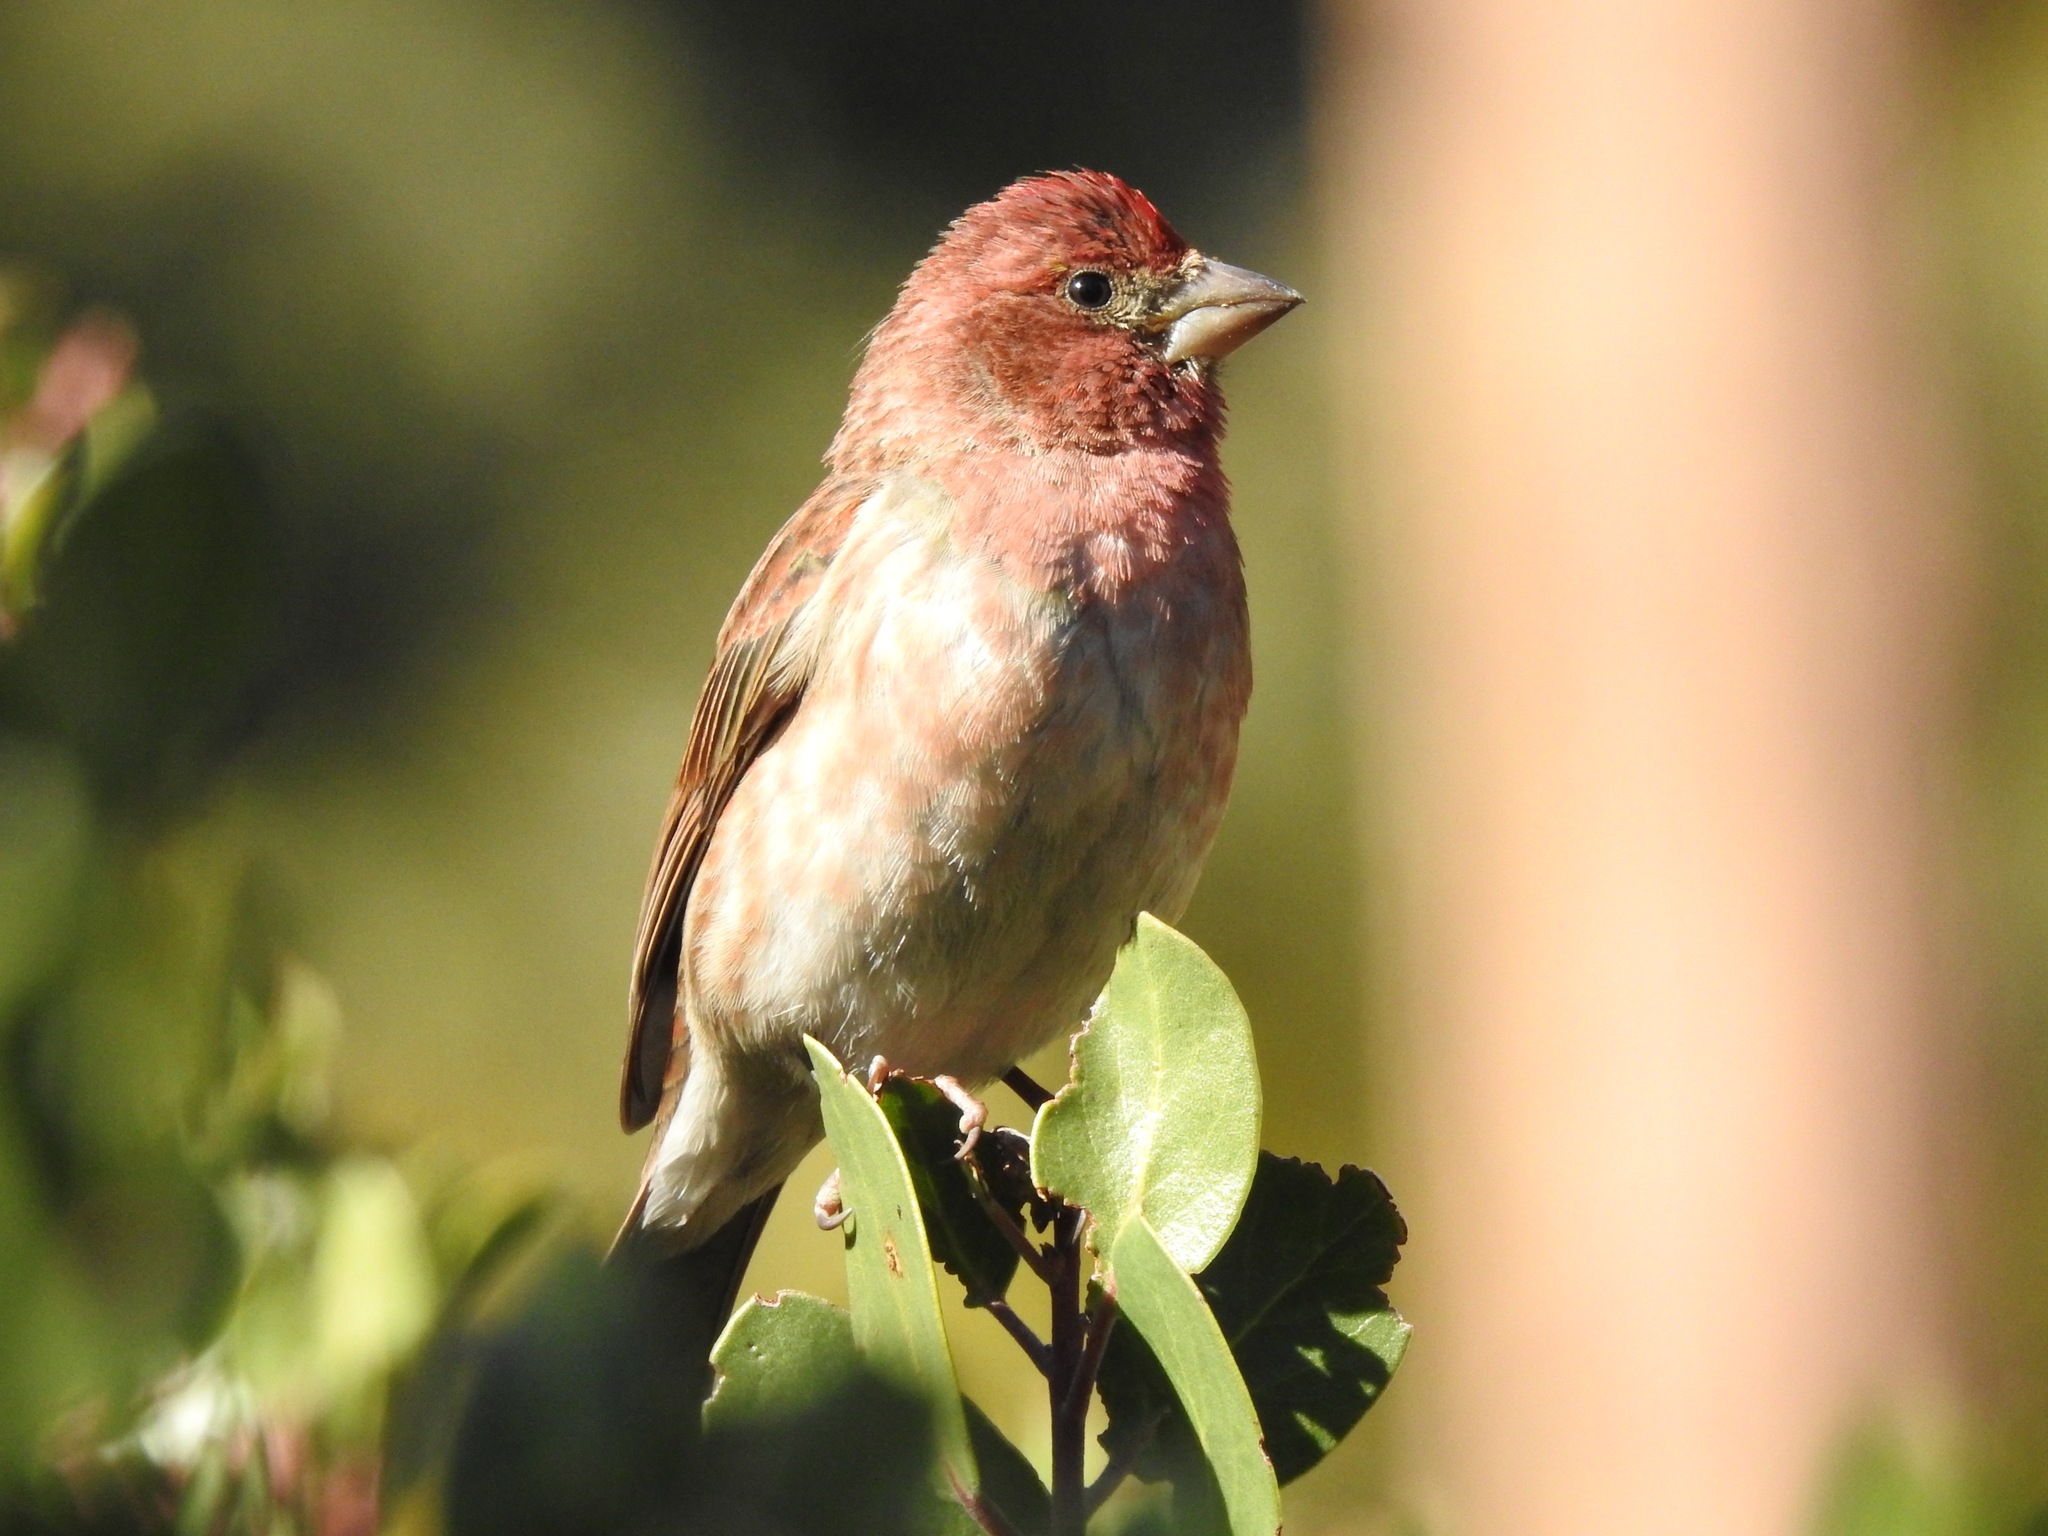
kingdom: Animalia
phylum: Chordata
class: Aves
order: Passeriformes
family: Fringillidae
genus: Haemorhous
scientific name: Haemorhous purpureus
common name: Purple finch
